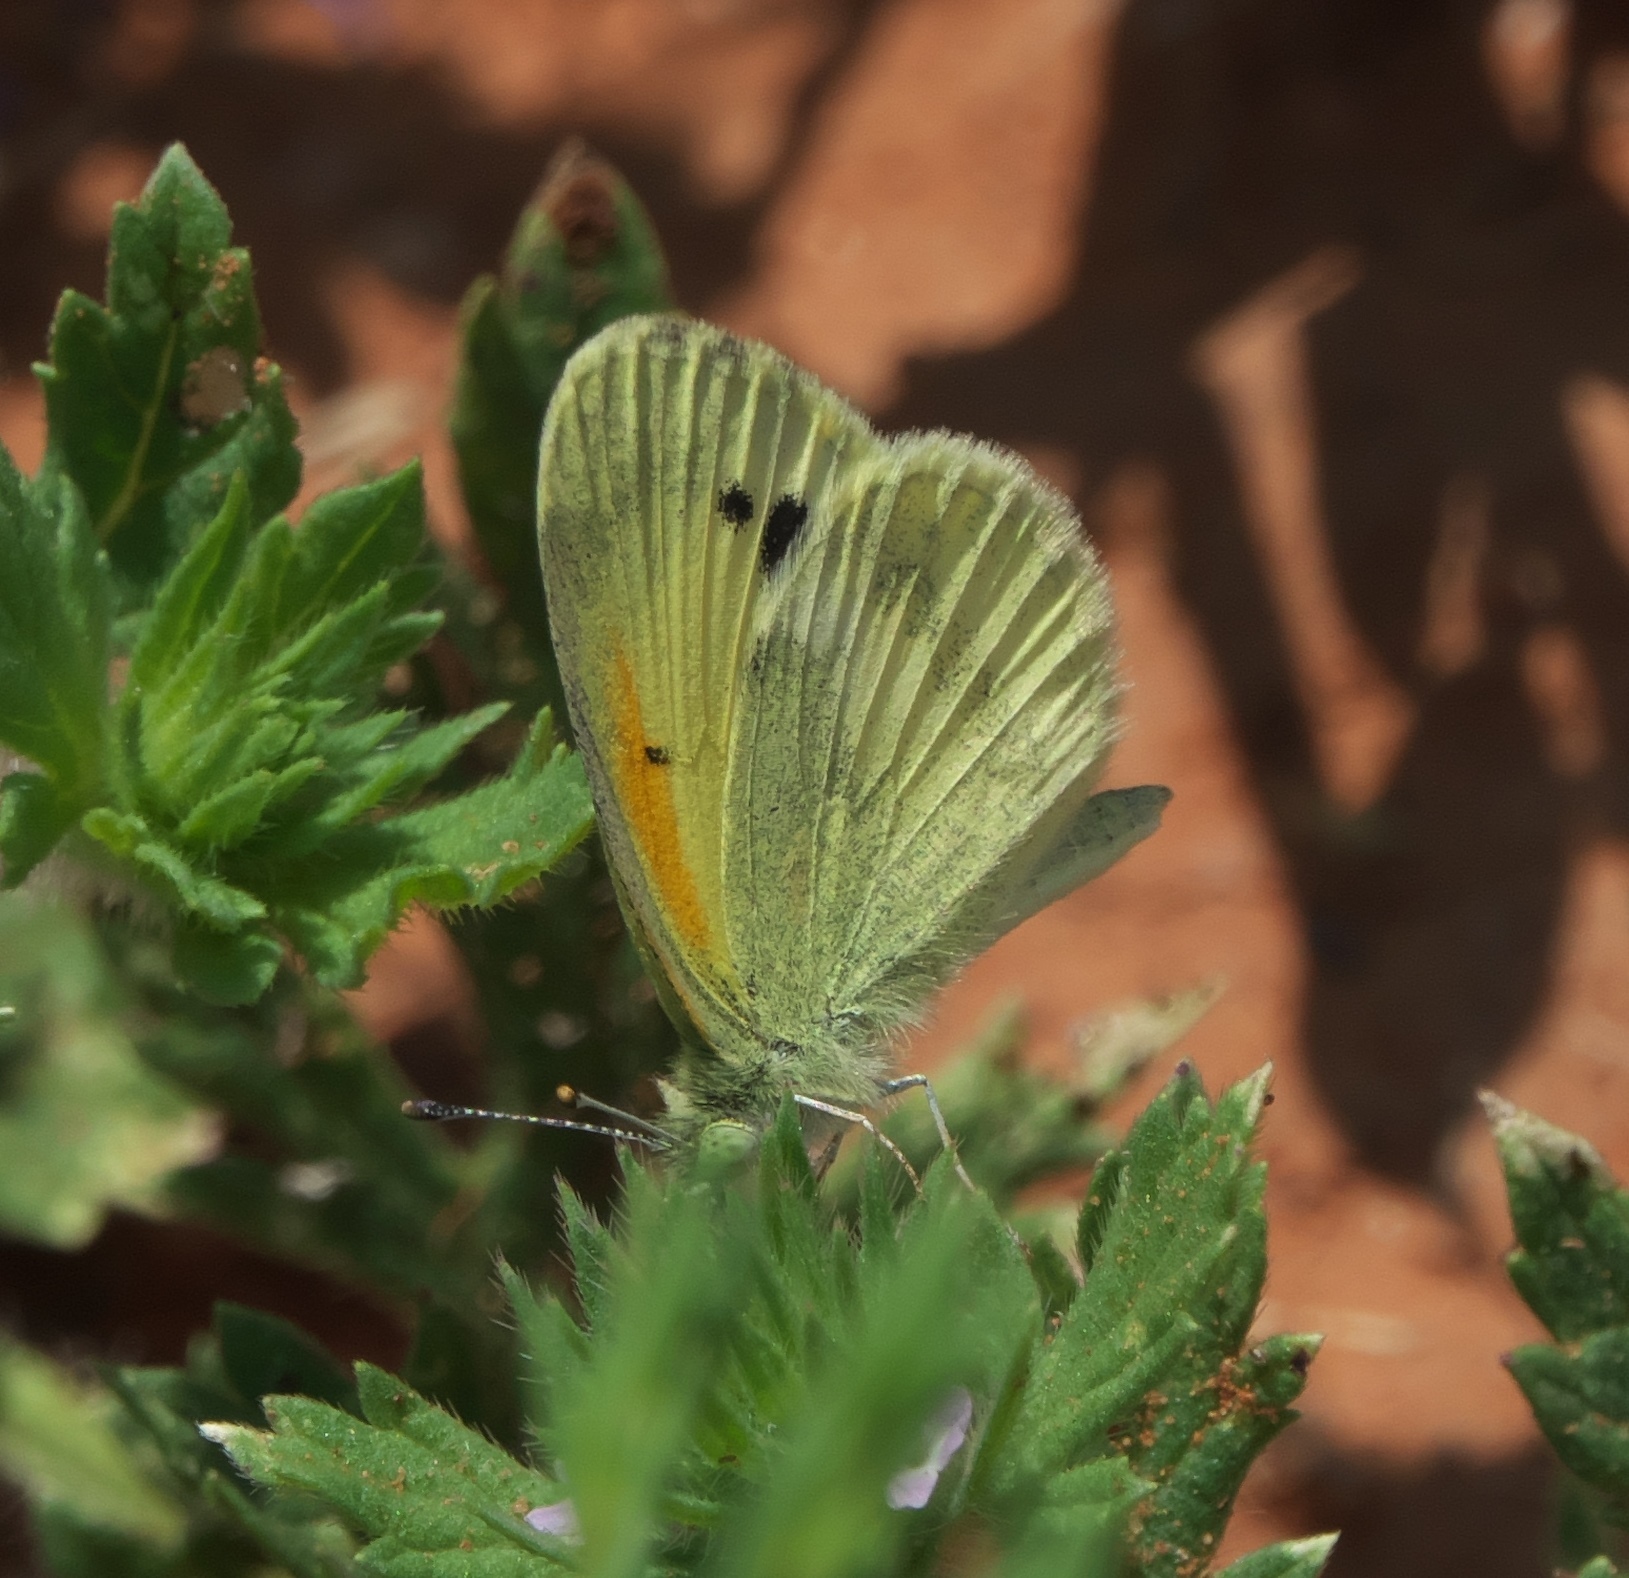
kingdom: Animalia
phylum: Arthropoda
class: Insecta
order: Lepidoptera
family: Pieridae
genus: Nathalis
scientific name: Nathalis iole
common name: Dainty sulphur
